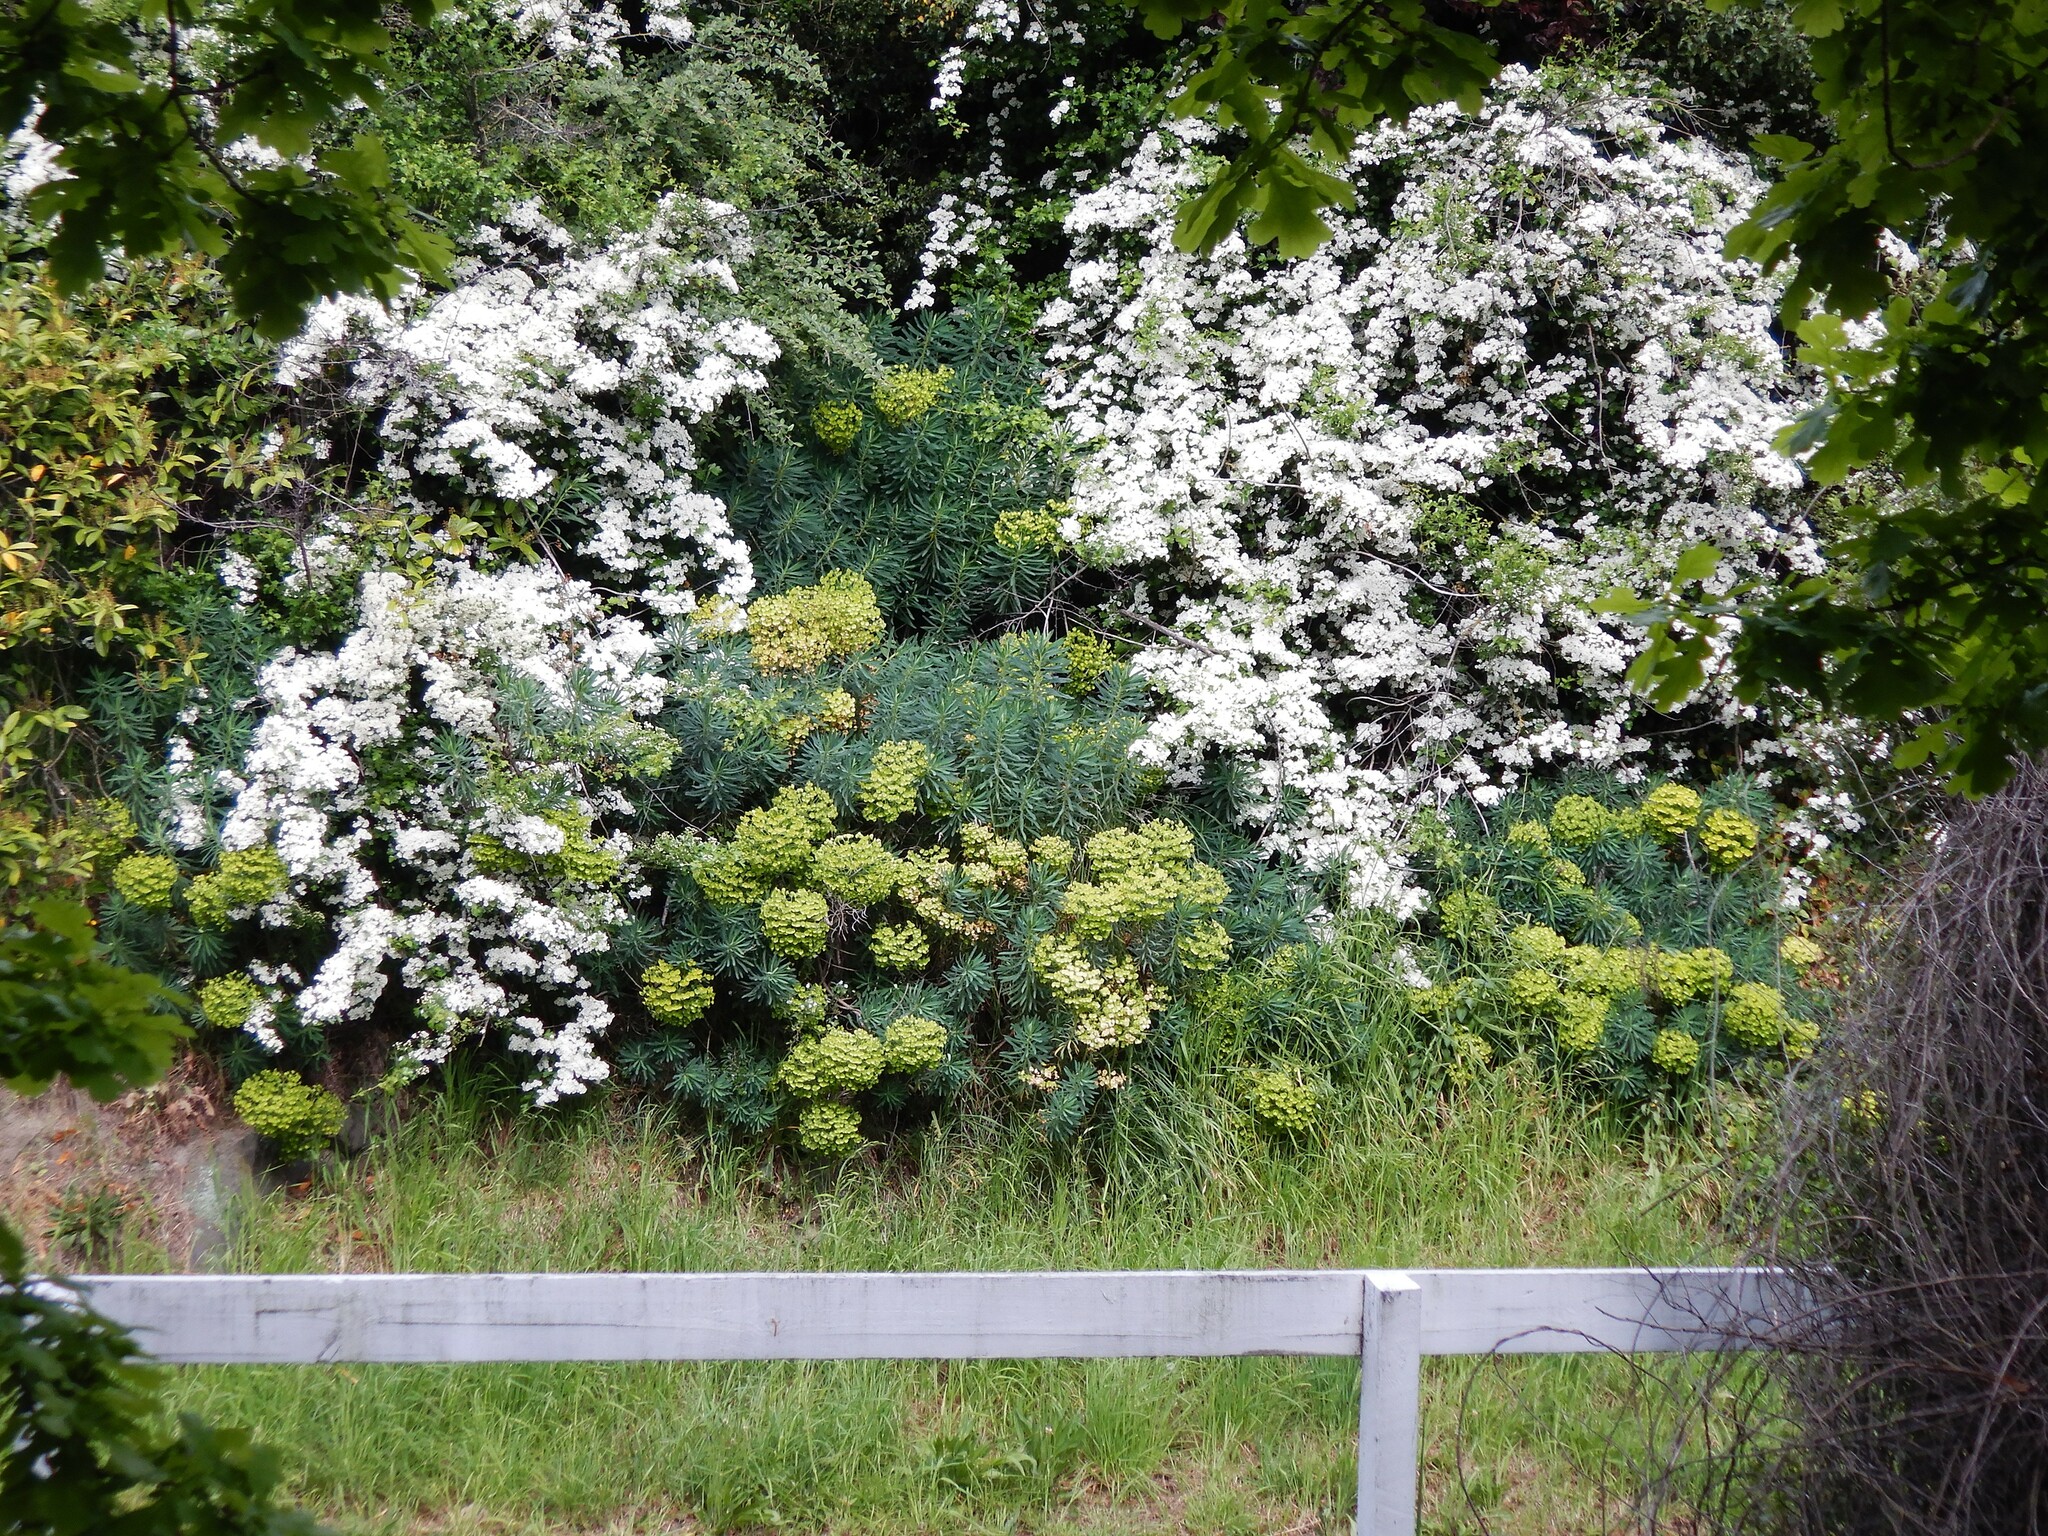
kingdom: Plantae
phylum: Tracheophyta
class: Magnoliopsida
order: Rosales
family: Rosaceae
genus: Crataegus
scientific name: Crataegus monogyna
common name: Hawthorn
